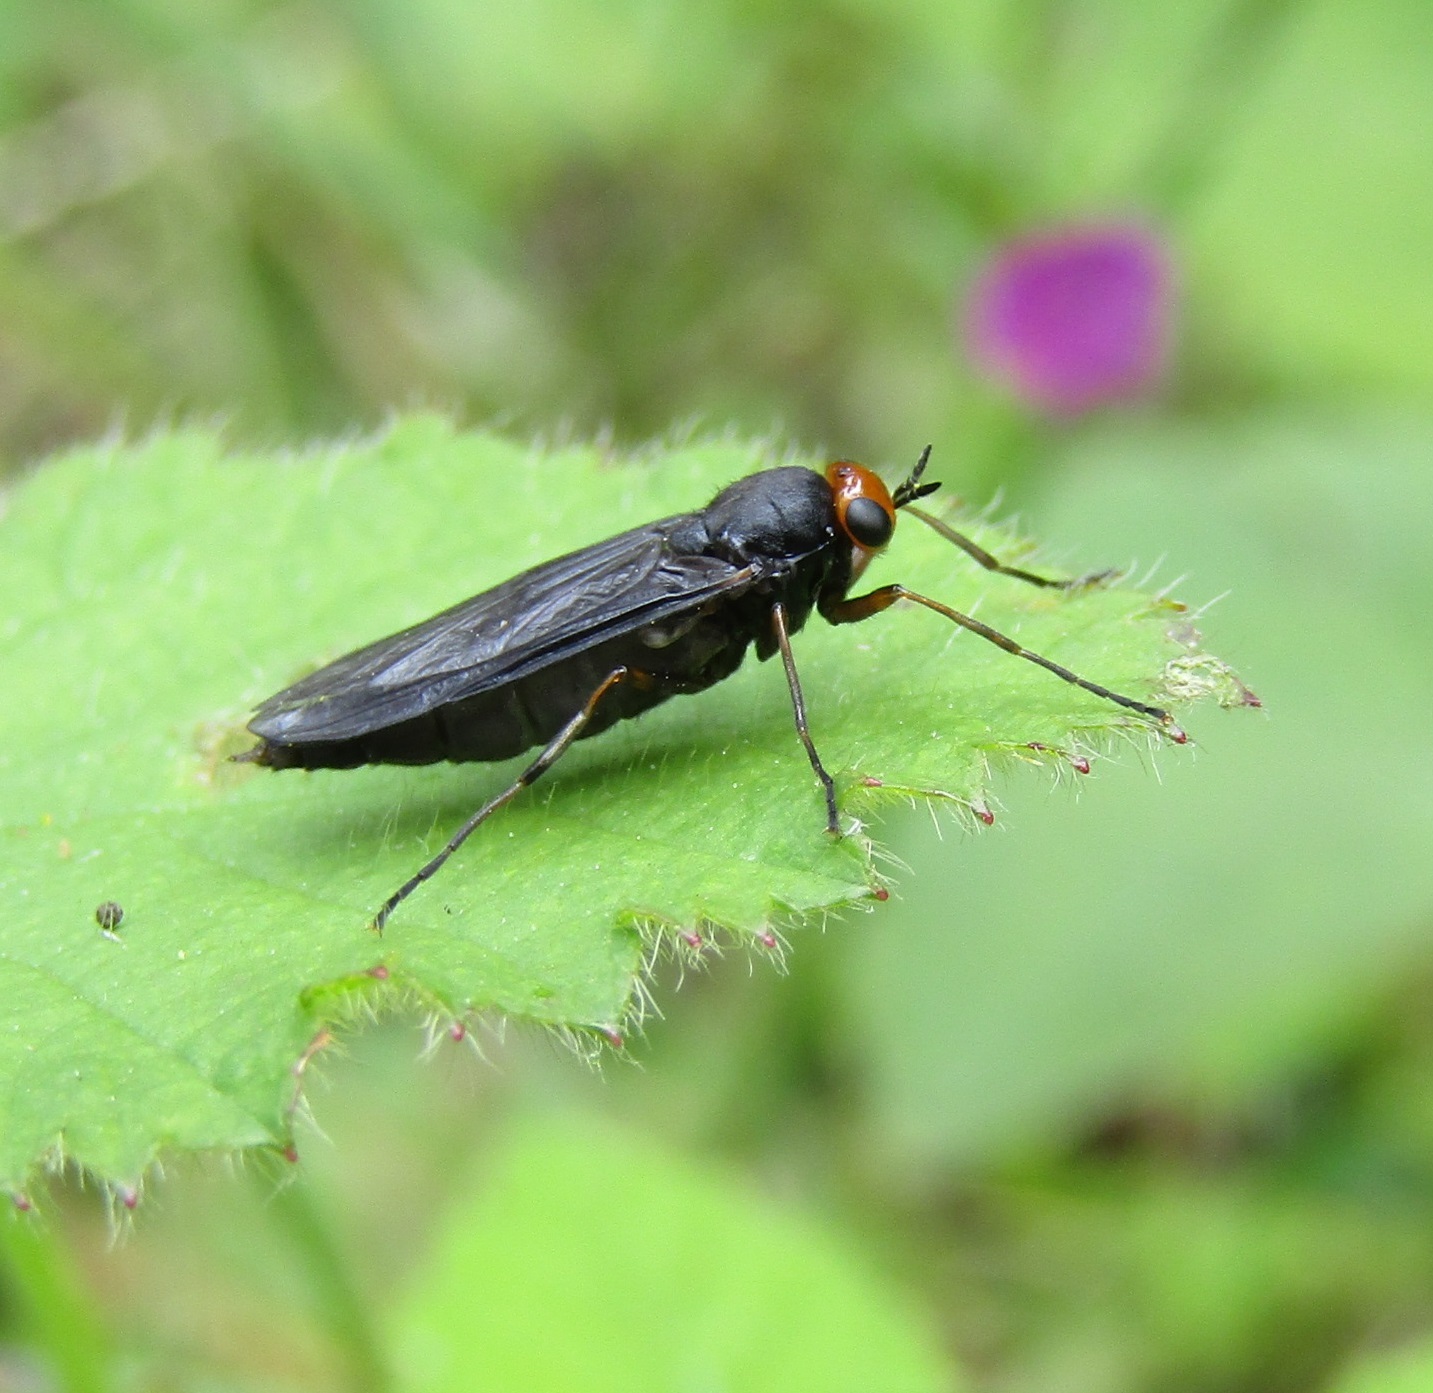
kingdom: Animalia
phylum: Arthropoda
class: Insecta
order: Diptera
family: Stratiomyidae
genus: Inopus
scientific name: Inopus rubriceps
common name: Soldier fly
